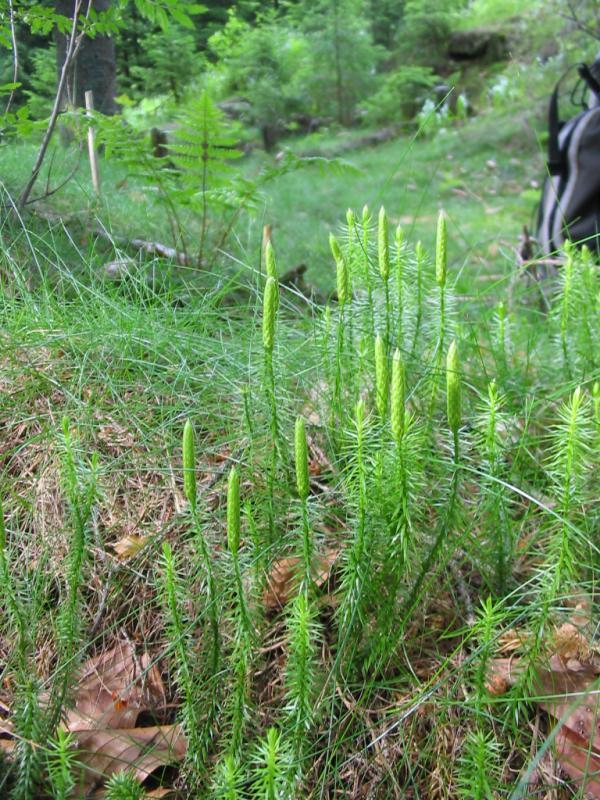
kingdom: Plantae
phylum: Tracheophyta
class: Lycopodiopsida
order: Lycopodiales
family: Lycopodiaceae
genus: Spinulum
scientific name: Spinulum annotinum
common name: Interrupted club-moss
